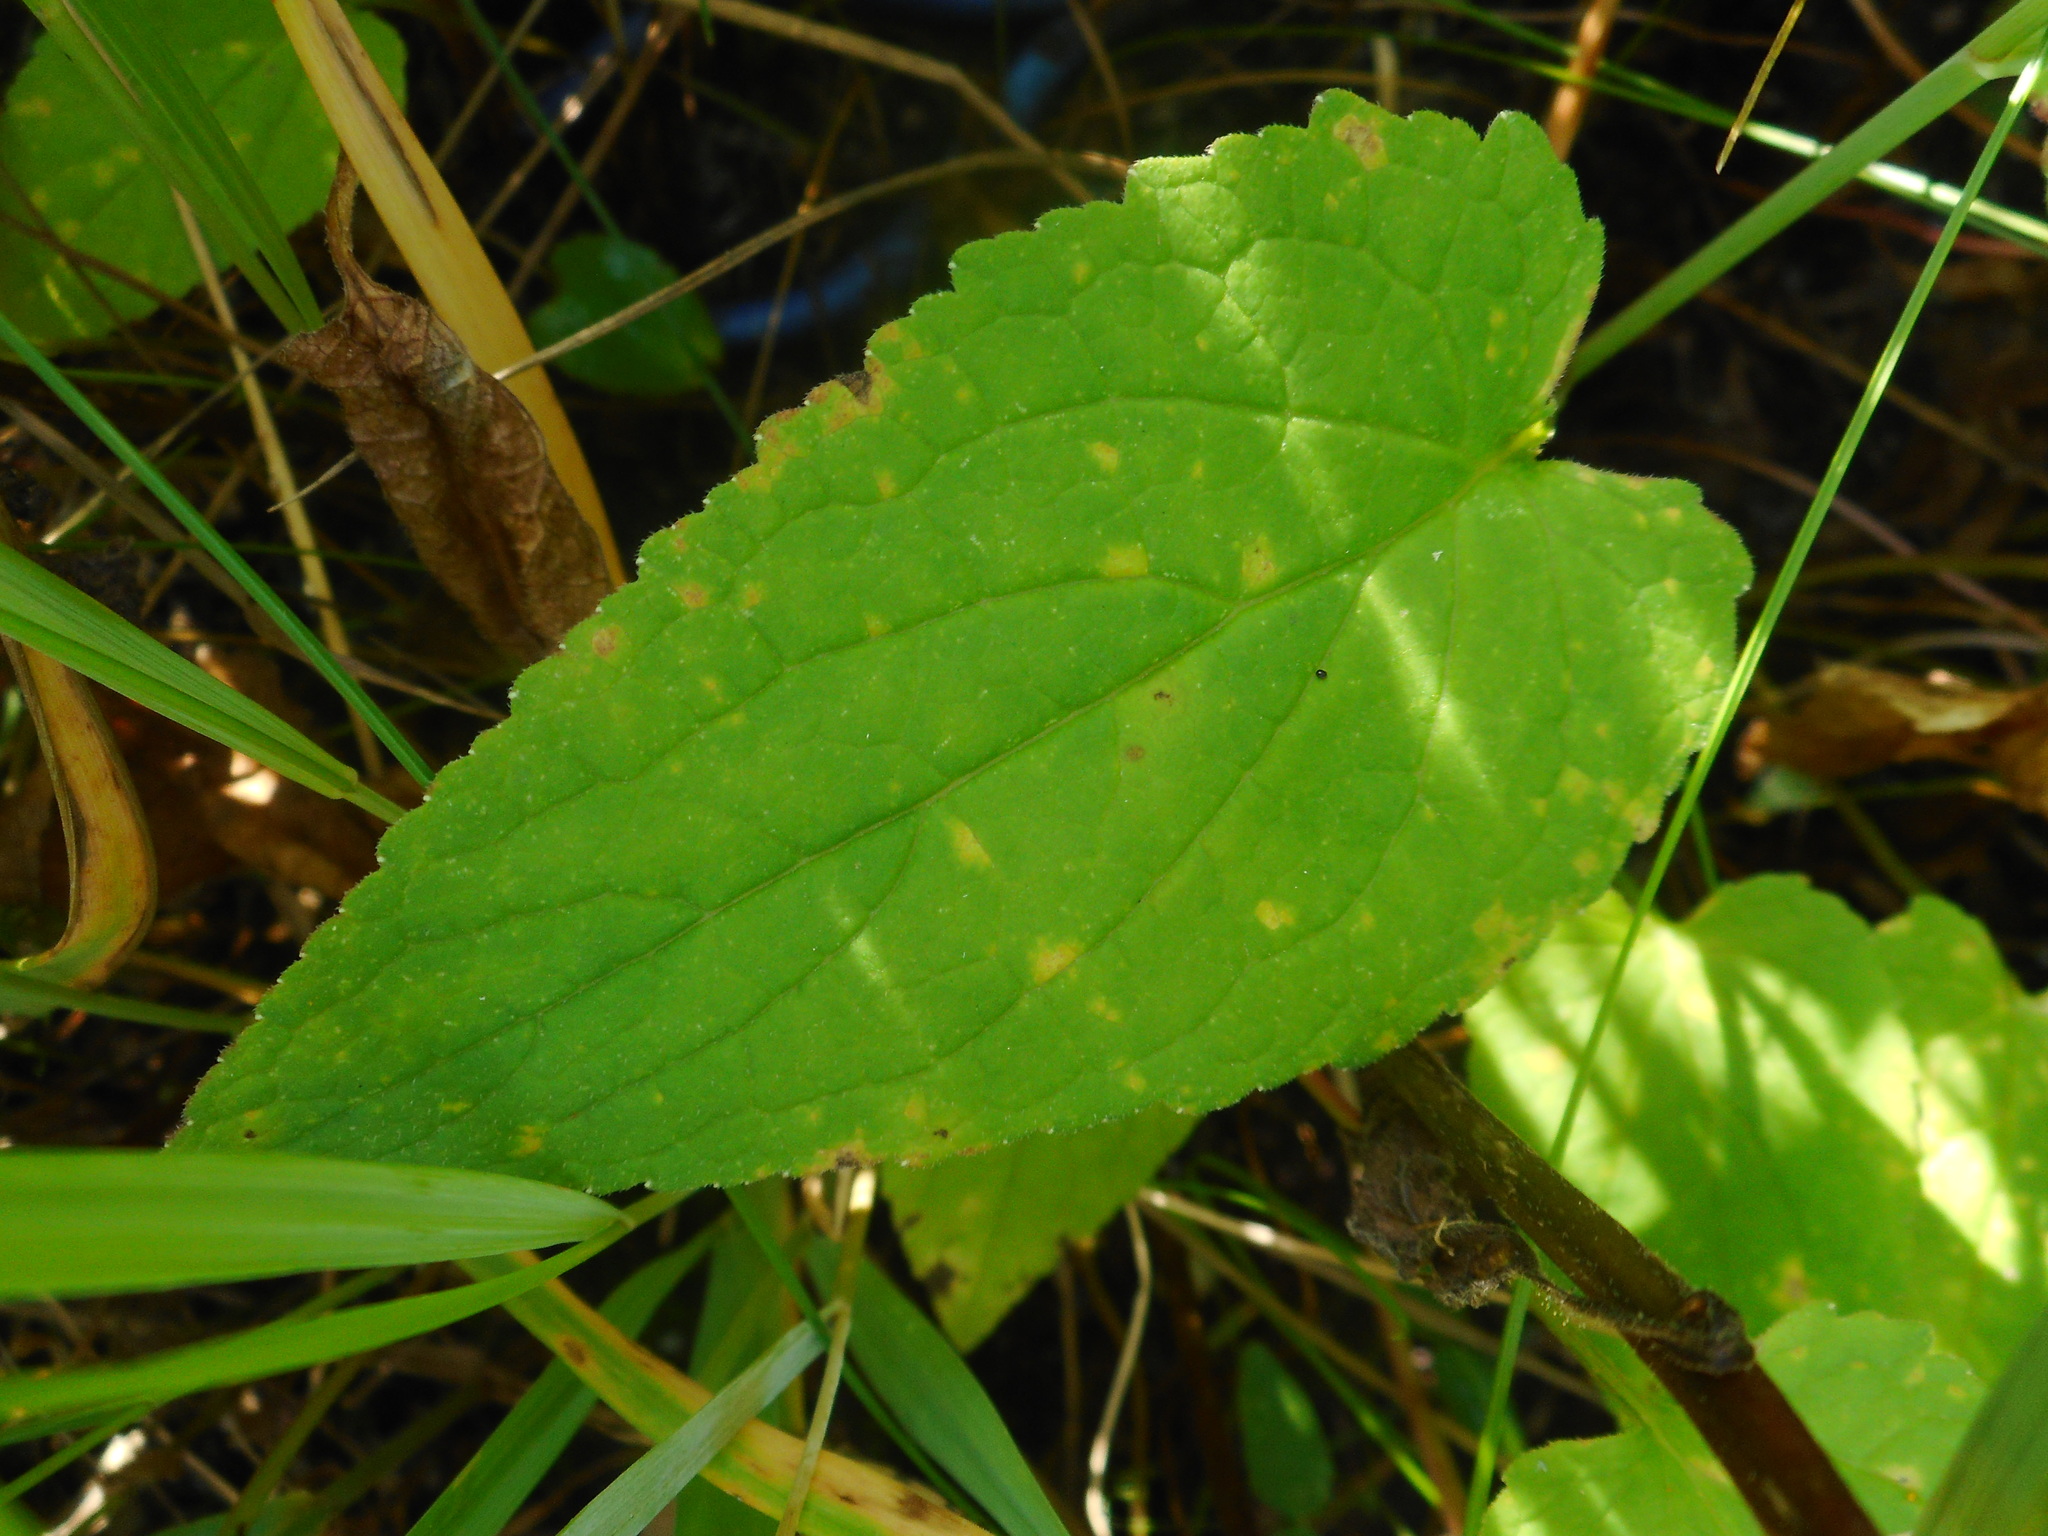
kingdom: Plantae
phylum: Tracheophyta
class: Magnoliopsida
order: Asterales
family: Campanulaceae
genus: Campanula
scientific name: Campanula rapunculoides
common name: Creeping bellflower
